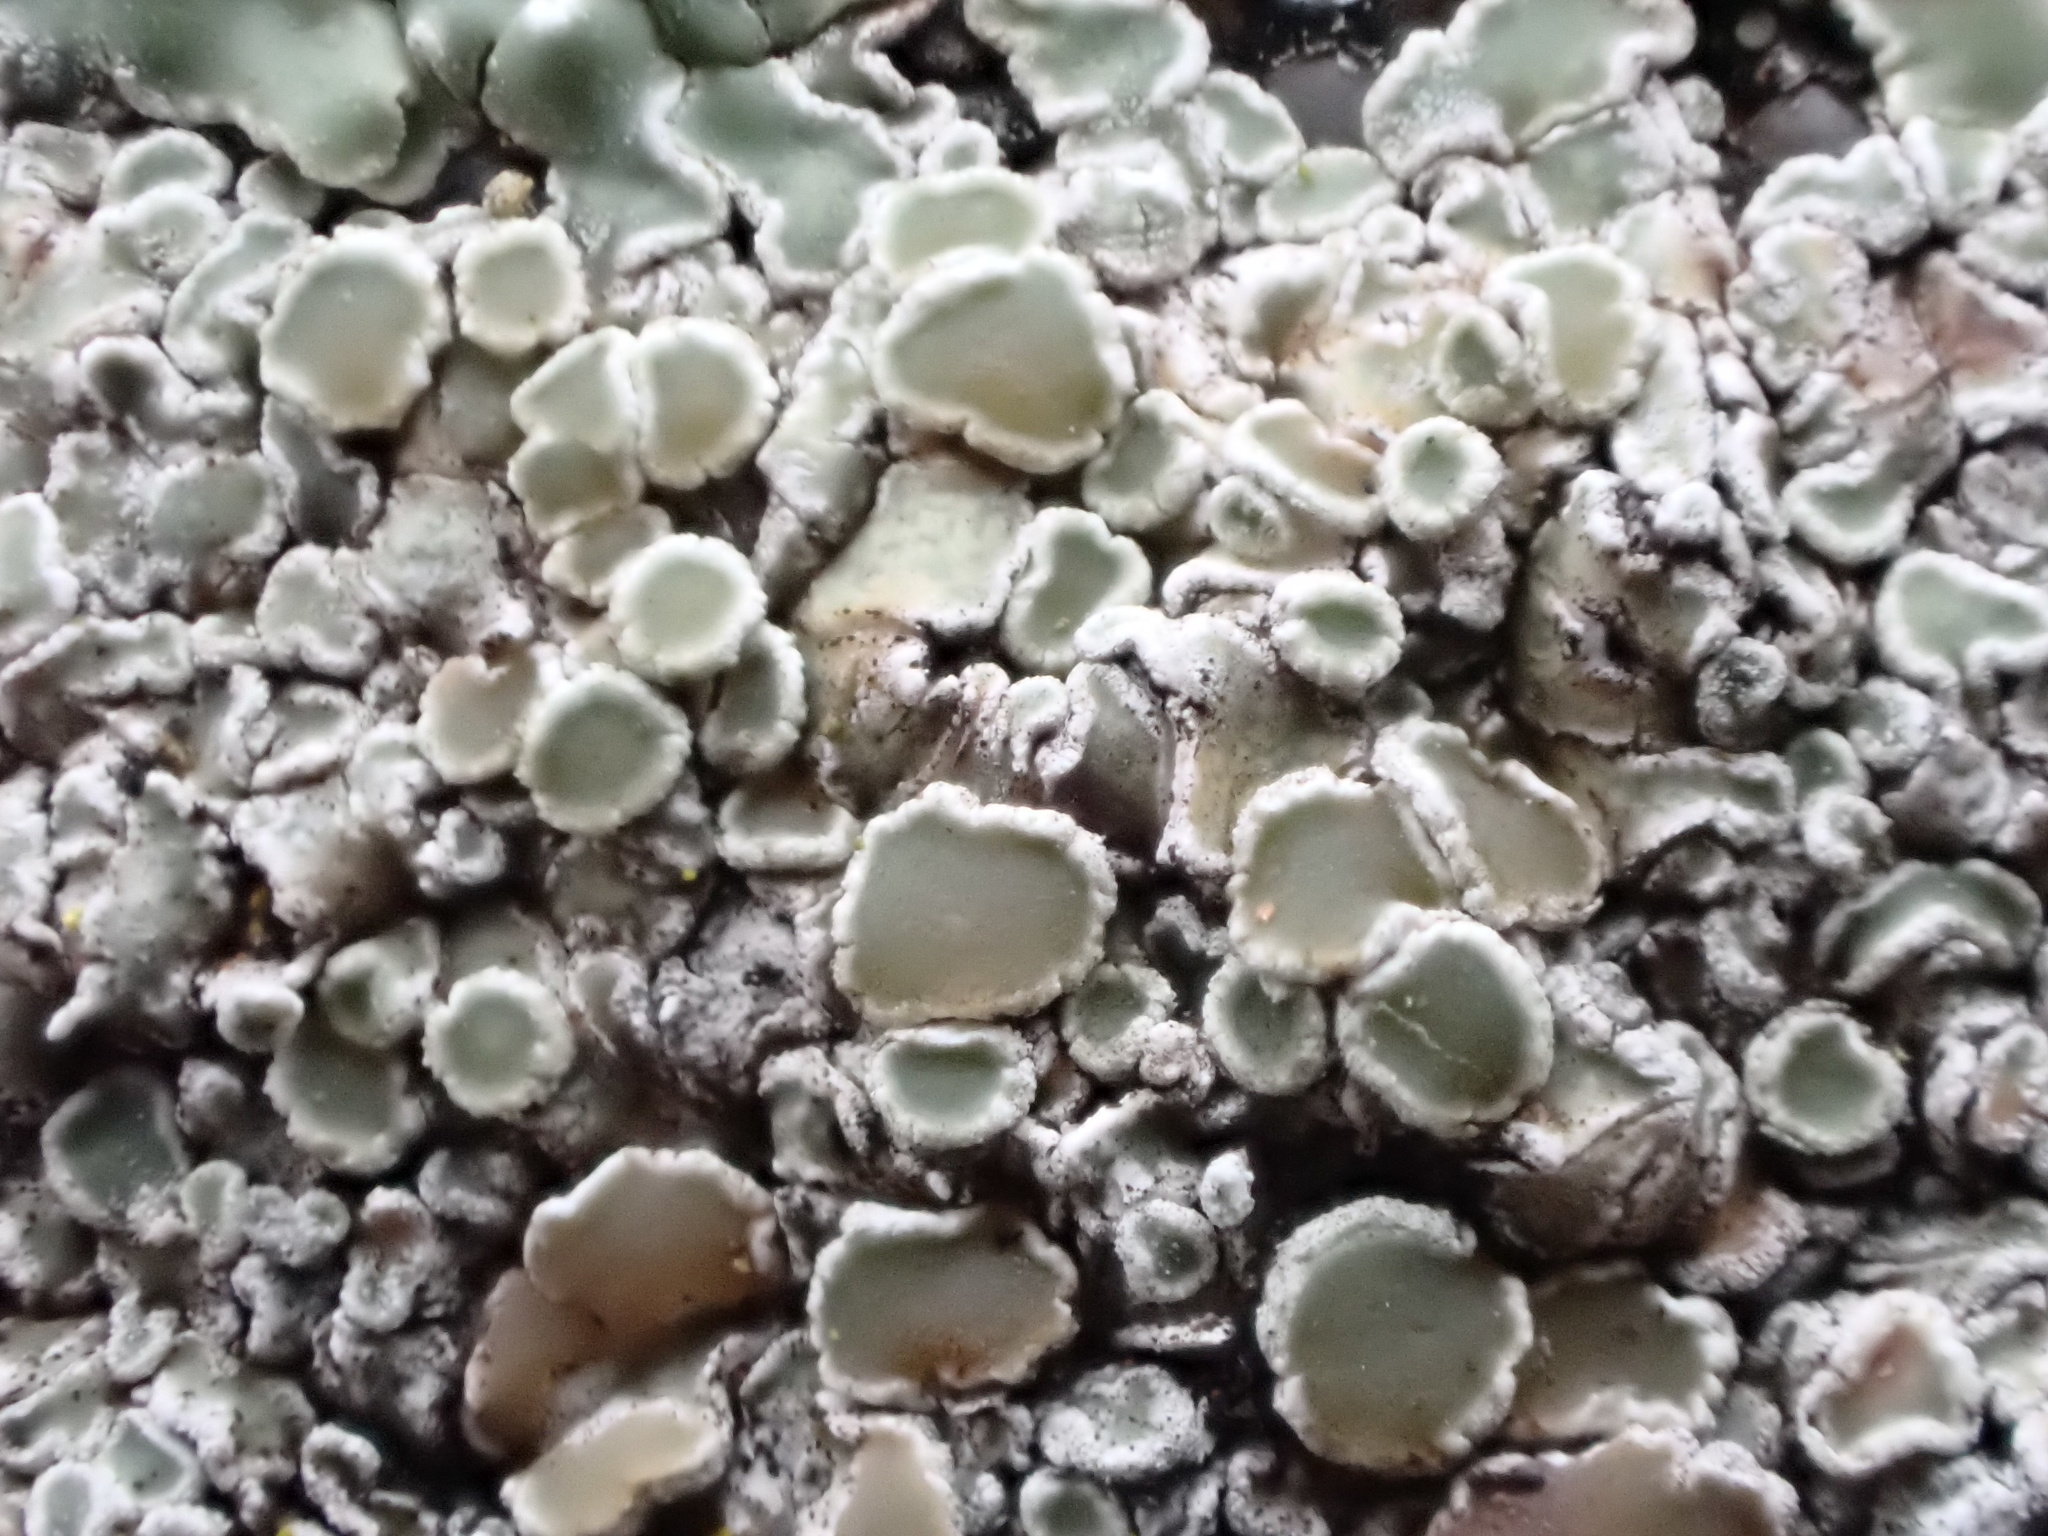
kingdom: Fungi
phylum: Ascomycota
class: Lecanoromycetes
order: Lecanorales
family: Lecanoraceae
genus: Protoparmeliopsis
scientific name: Protoparmeliopsis muralis
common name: Stonewall rim lichen
